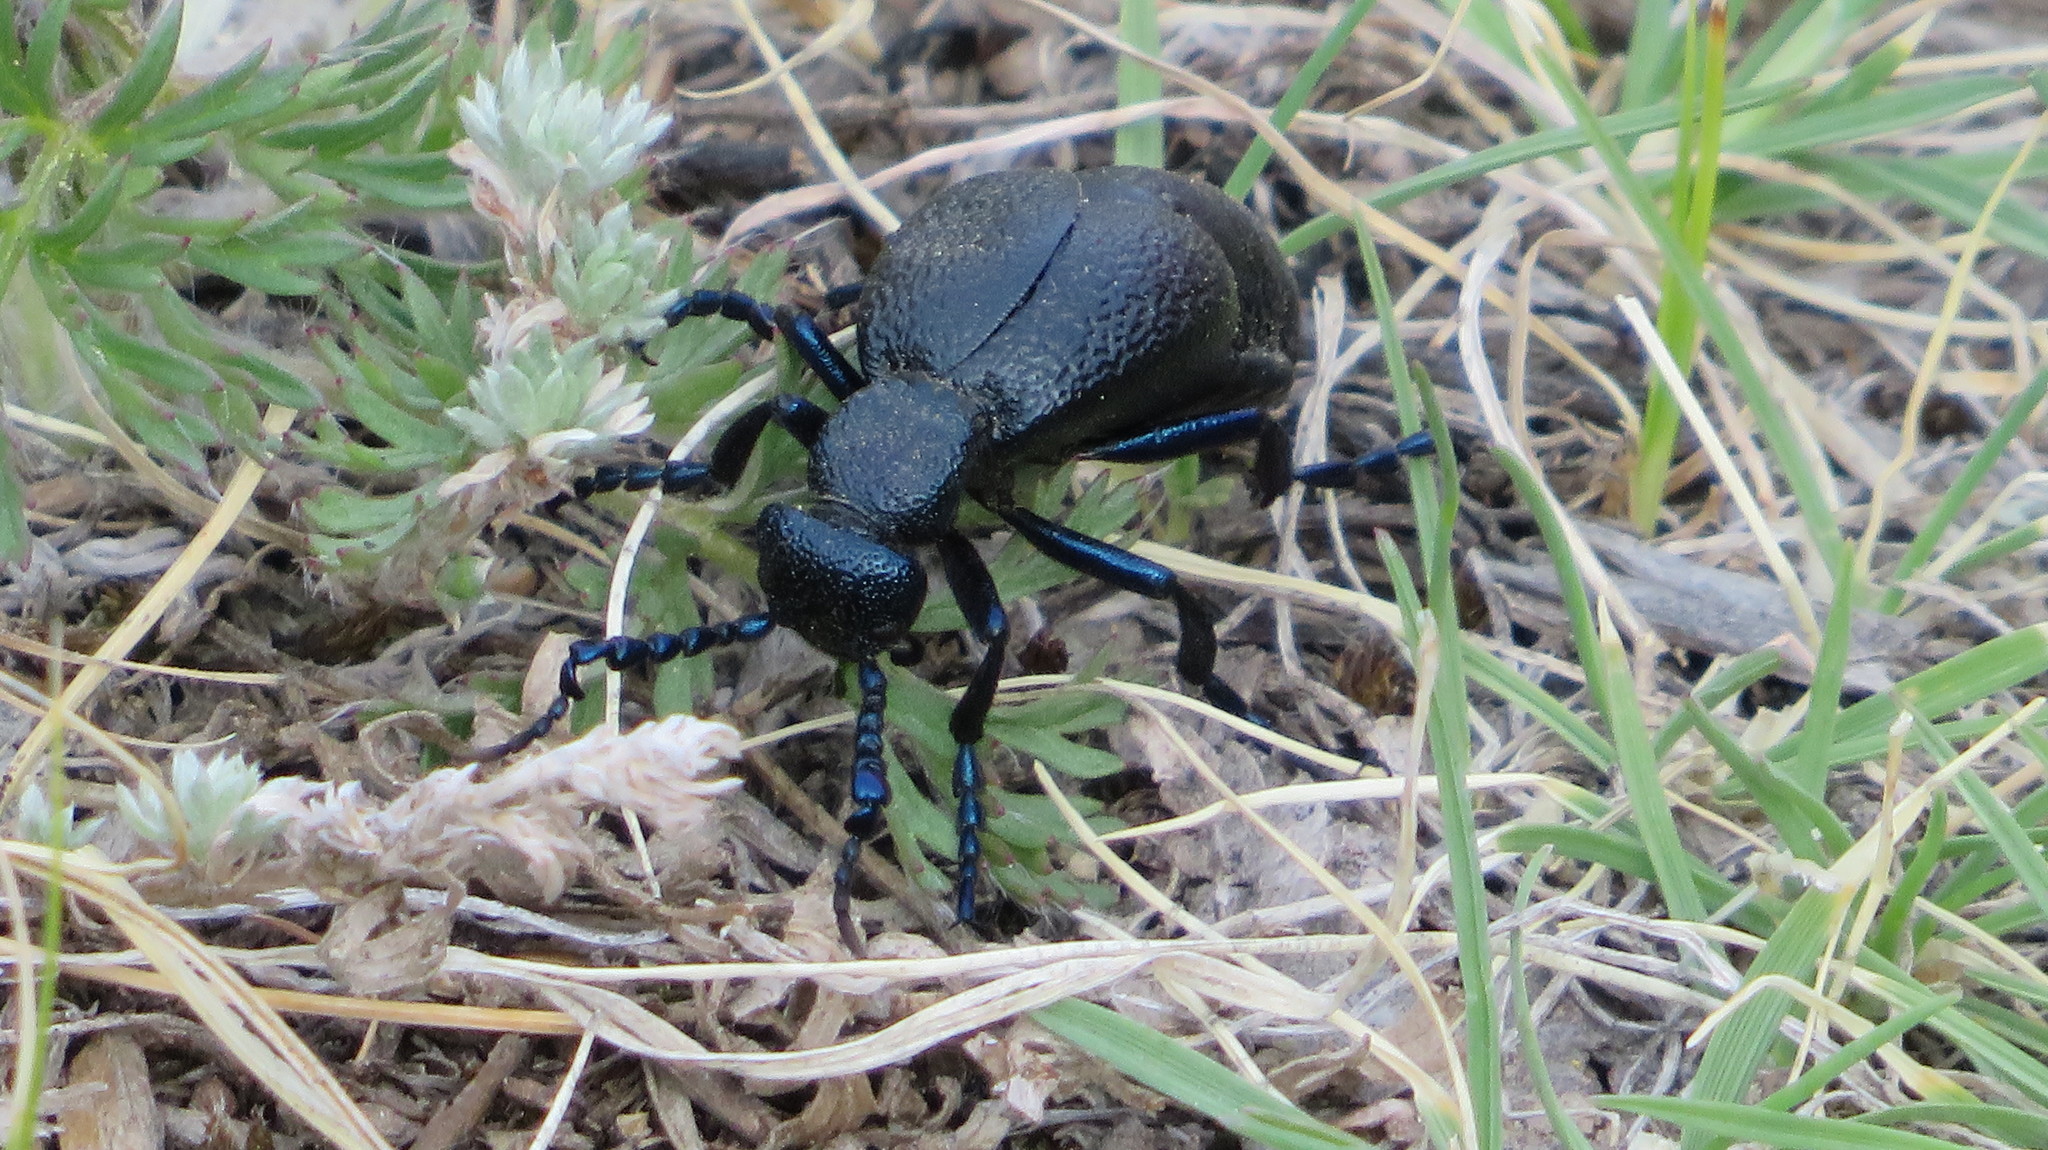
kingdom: Animalia
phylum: Arthropoda
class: Insecta
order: Coleoptera
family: Meloidae
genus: Meloe
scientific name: Meloe proscarabaeus
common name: Black oil-beetle
